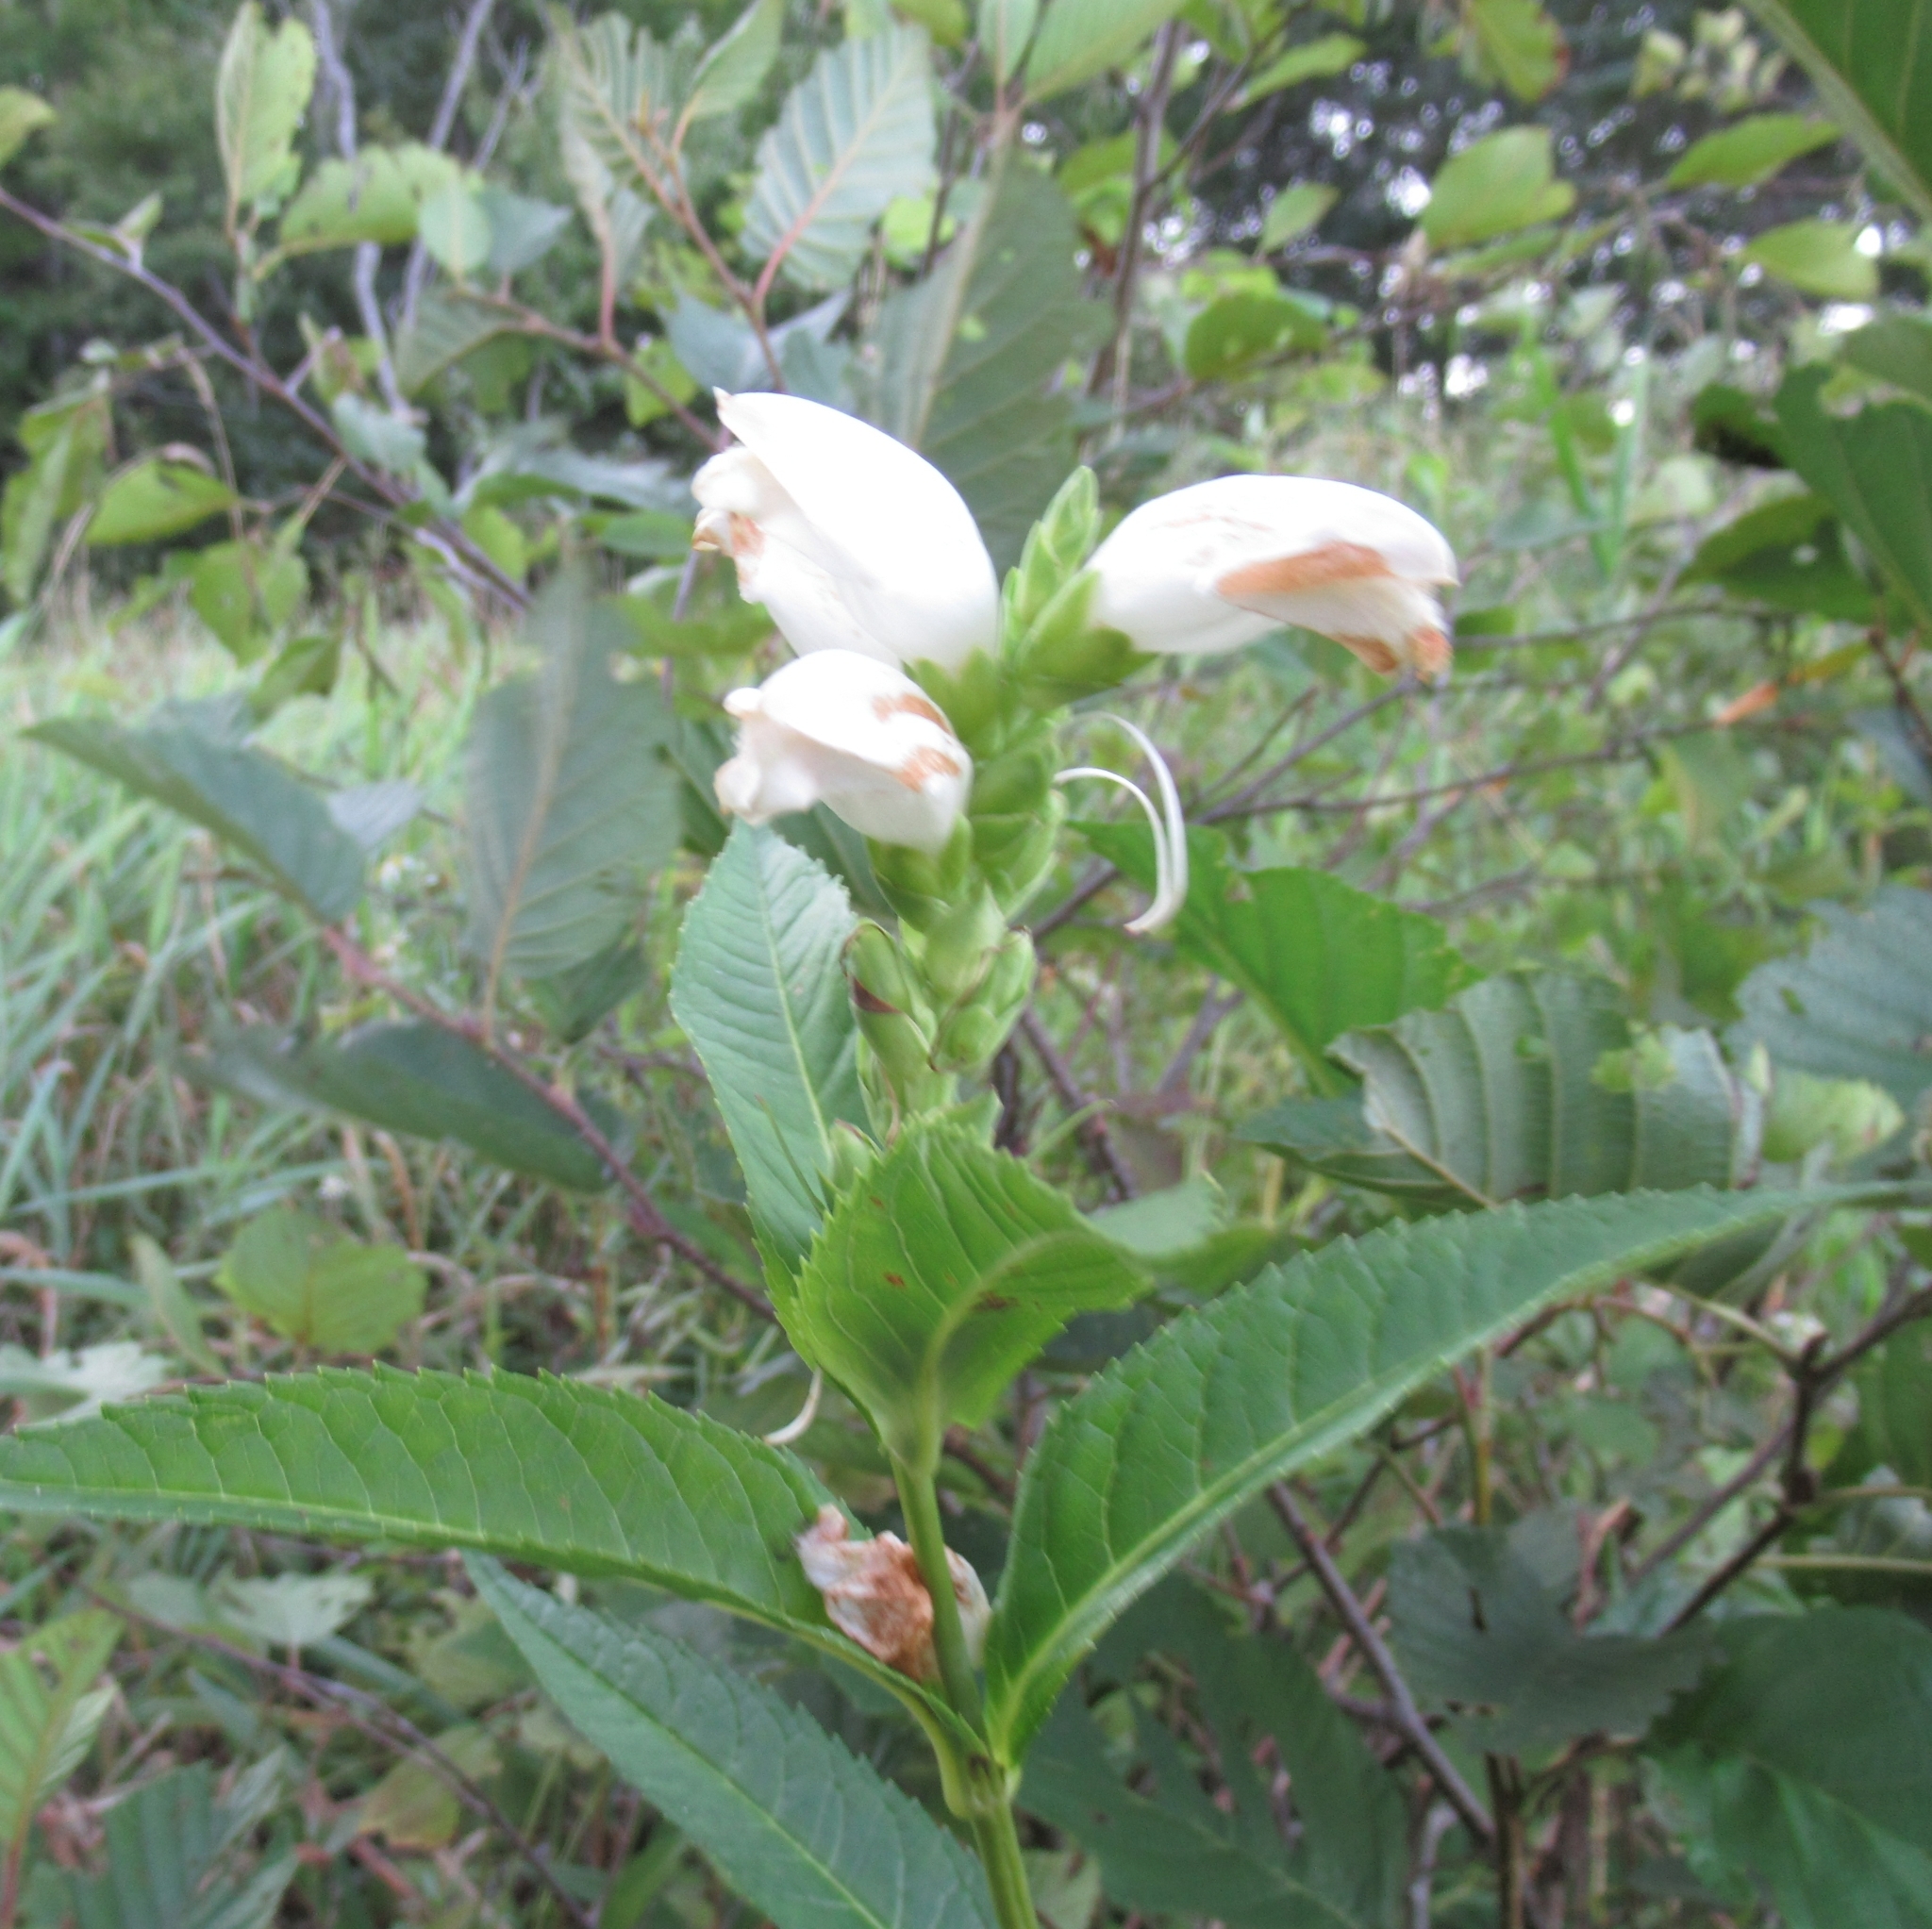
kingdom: Plantae
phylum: Tracheophyta
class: Magnoliopsida
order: Lamiales
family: Plantaginaceae
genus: Chelone
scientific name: Chelone glabra
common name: Snakehead
